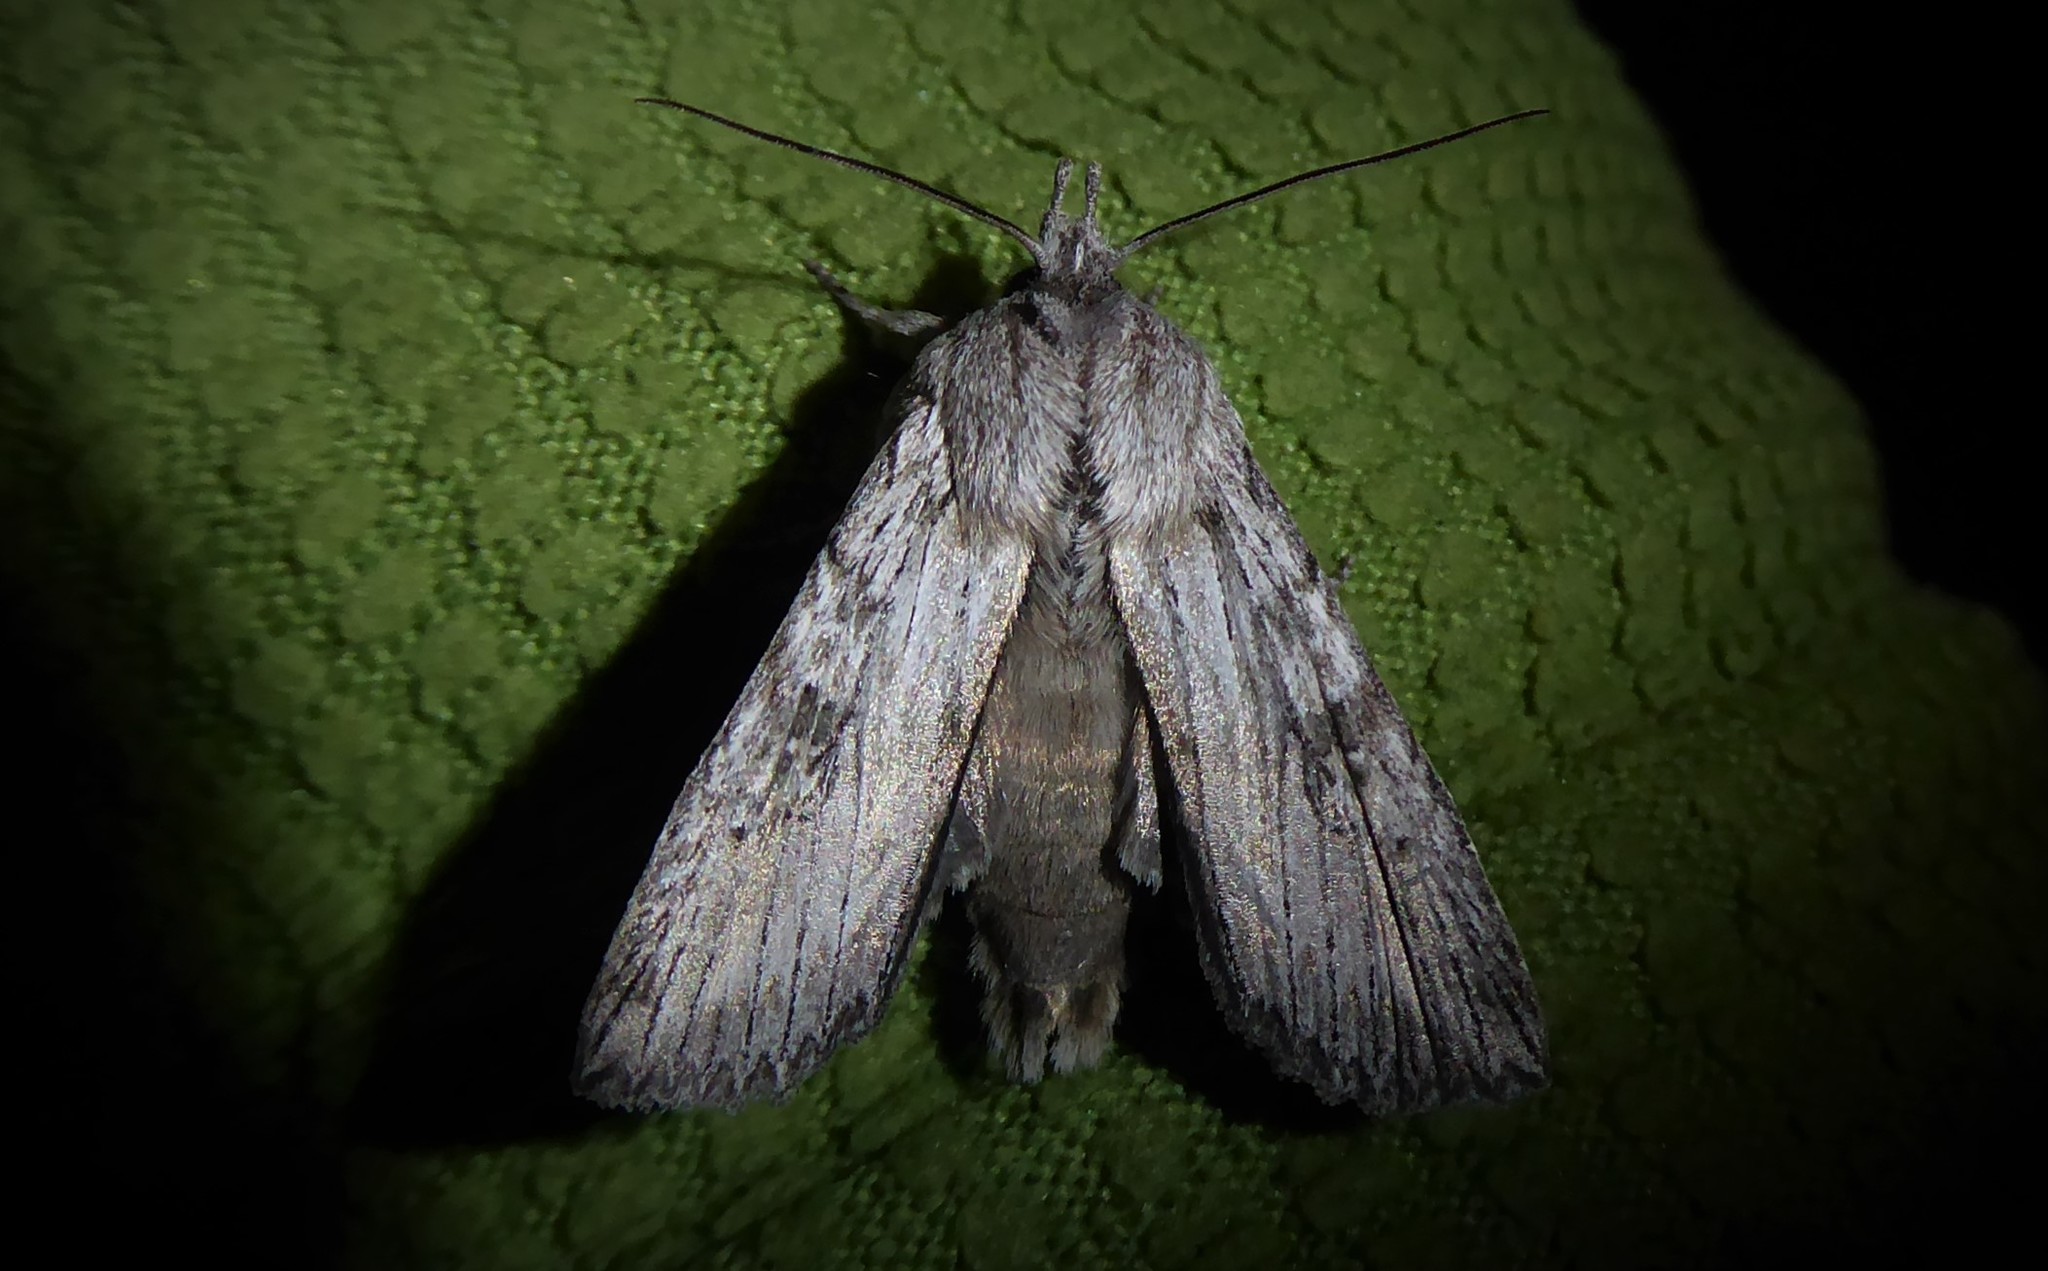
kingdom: Animalia
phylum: Arthropoda
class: Insecta
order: Lepidoptera
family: Noctuidae
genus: Physetica
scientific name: Physetica phricias
